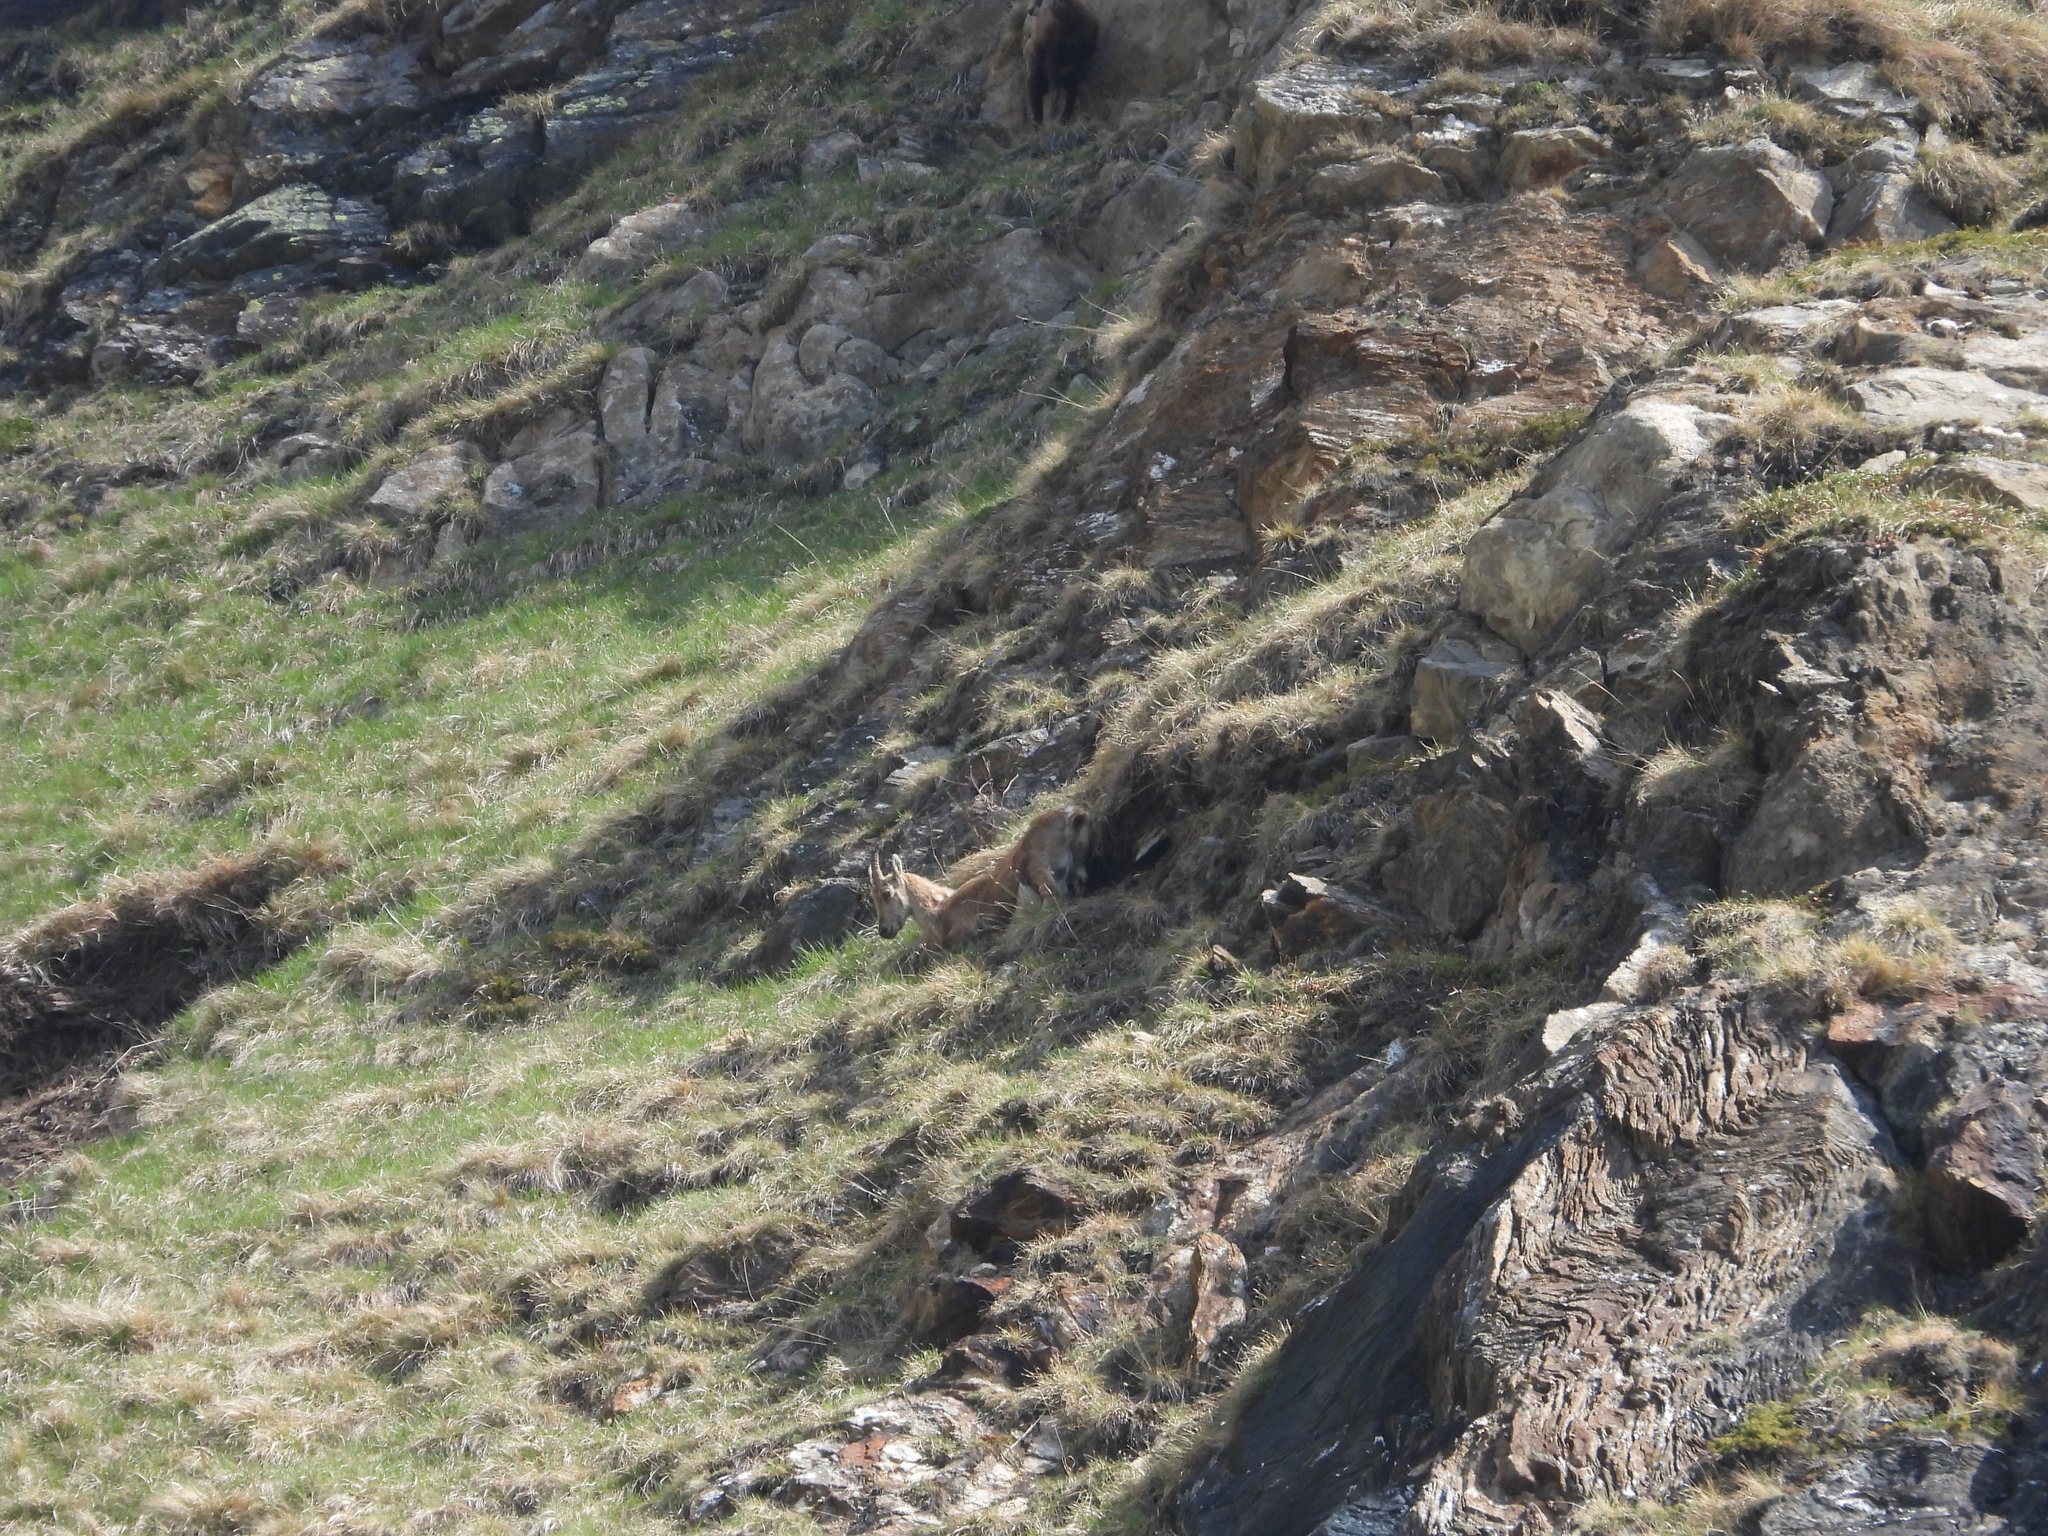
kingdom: Animalia
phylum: Chordata
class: Mammalia
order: Artiodactyla
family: Bovidae
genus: Capra
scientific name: Capra ibex
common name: Alpine ibex
